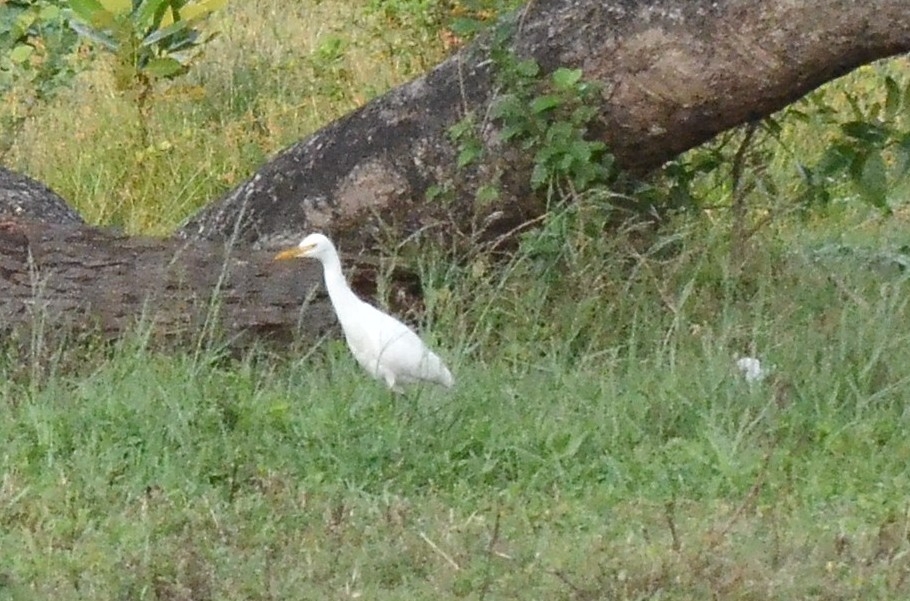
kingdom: Animalia
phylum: Chordata
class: Aves
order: Pelecaniformes
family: Ardeidae
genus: Bubulcus
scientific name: Bubulcus coromandus
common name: Eastern cattle egret
